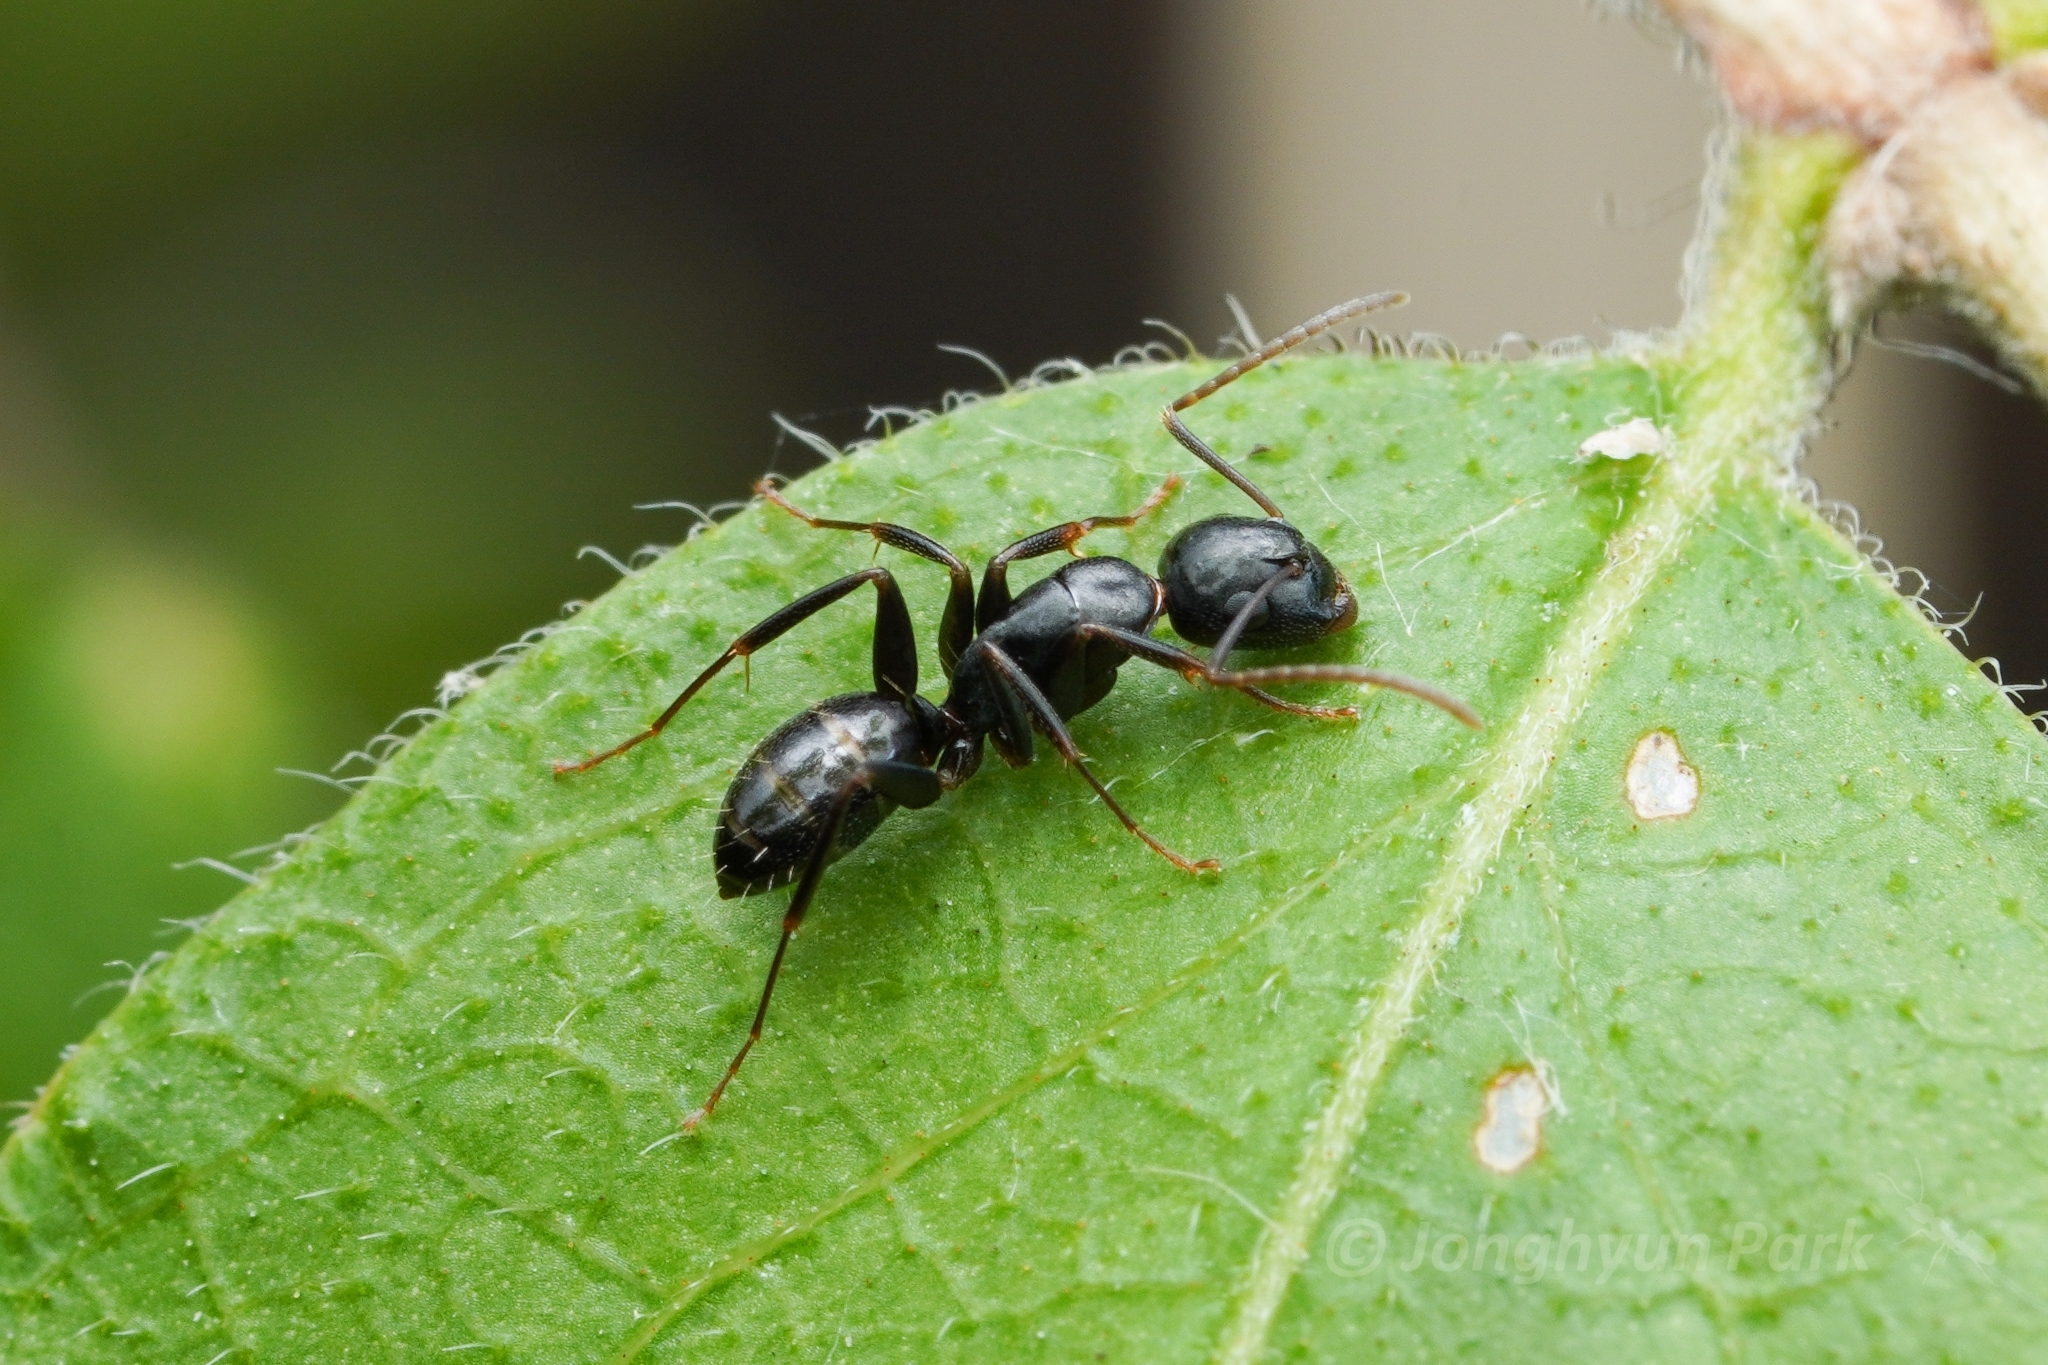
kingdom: Animalia
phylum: Arthropoda
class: Insecta
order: Hymenoptera
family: Formicidae
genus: Camponotus
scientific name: Camponotus nearcticus
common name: Smaller carpenter ant
